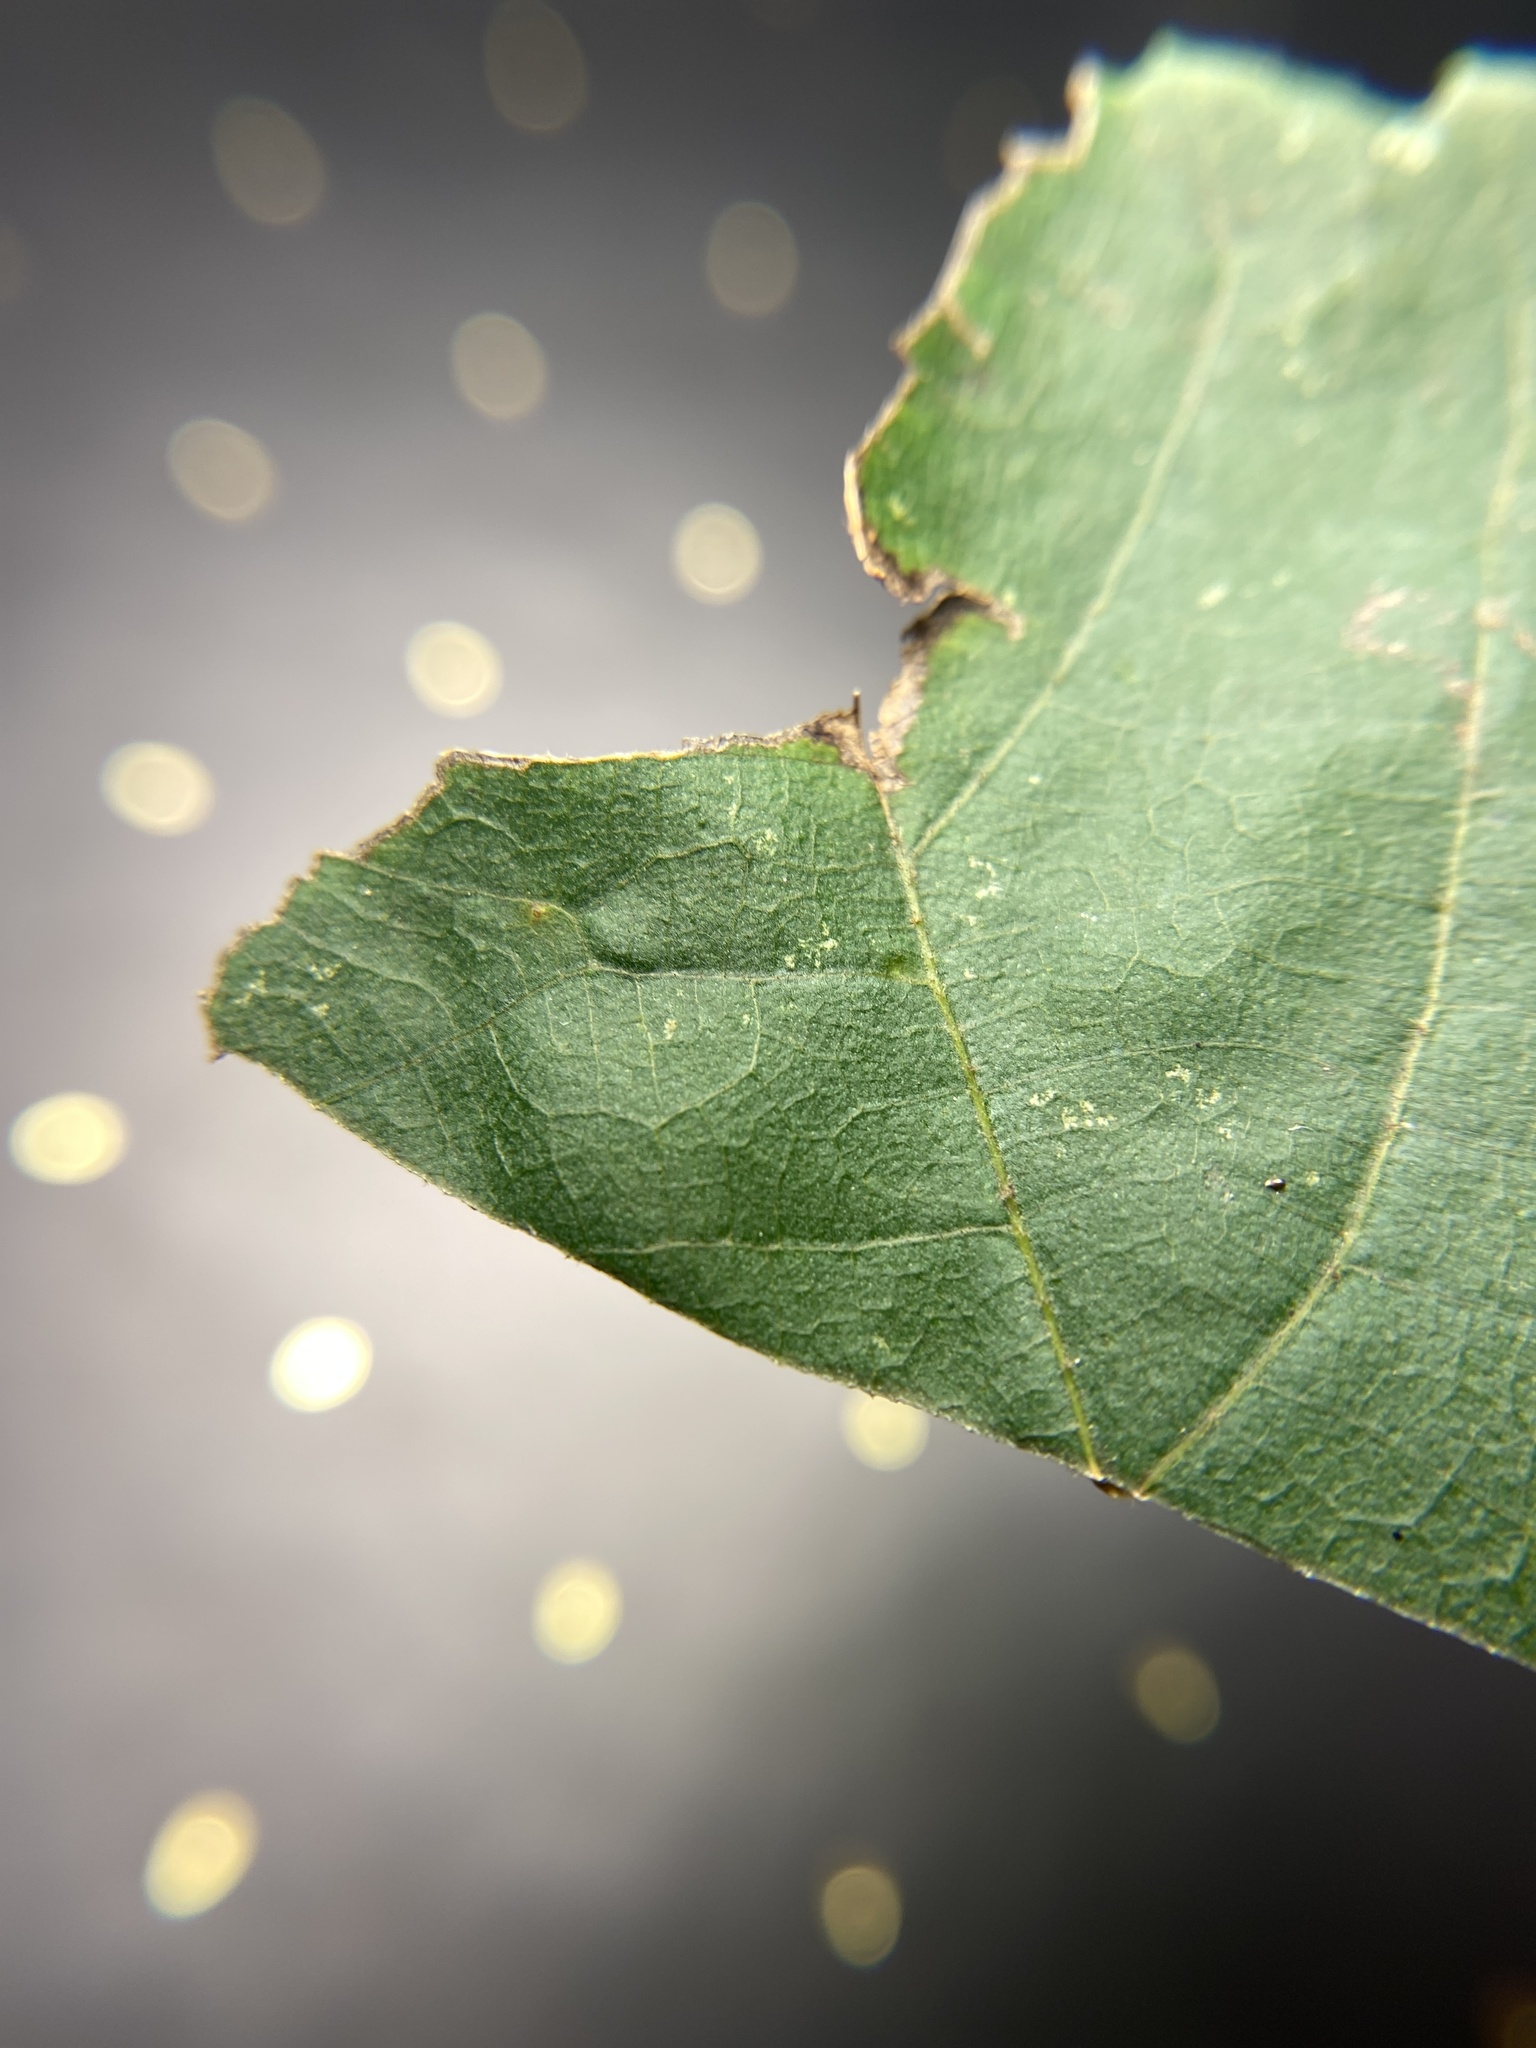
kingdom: Animalia
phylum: Arthropoda
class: Insecta
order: Diptera
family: Cecidomyiidae
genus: Caryomyia
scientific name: Caryomyia spiniglobus
